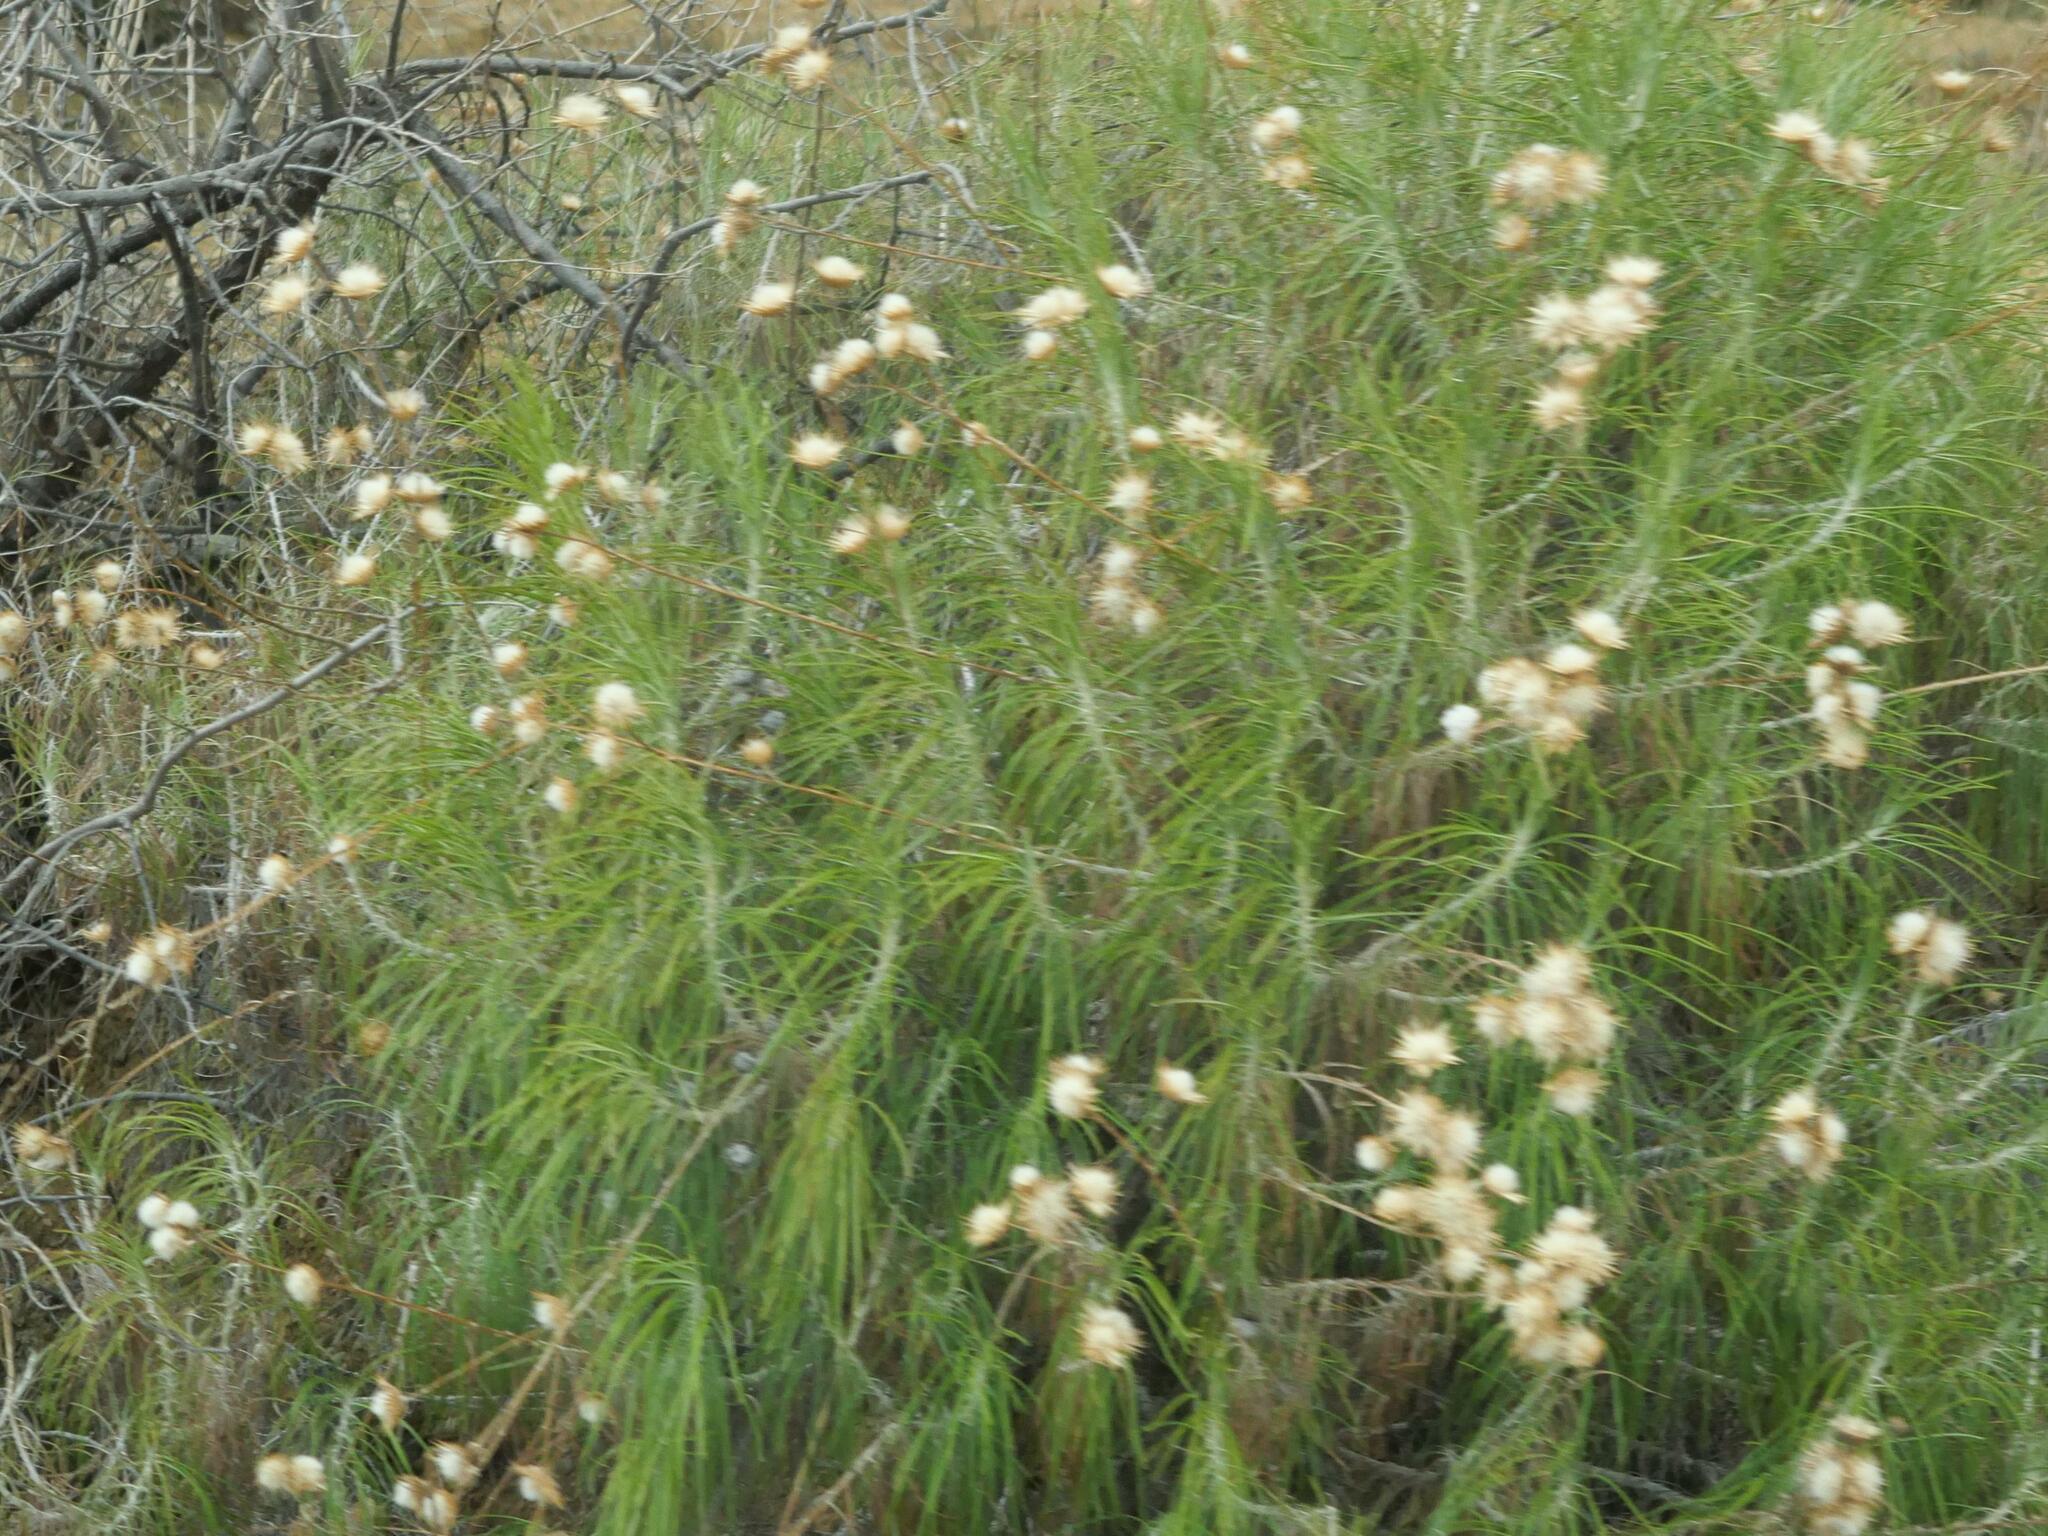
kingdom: Plantae
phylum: Tracheophyta
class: Magnoliopsida
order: Asterales
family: Asteraceae
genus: Ptilostemon
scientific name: Ptilostemon chamaepeuce
